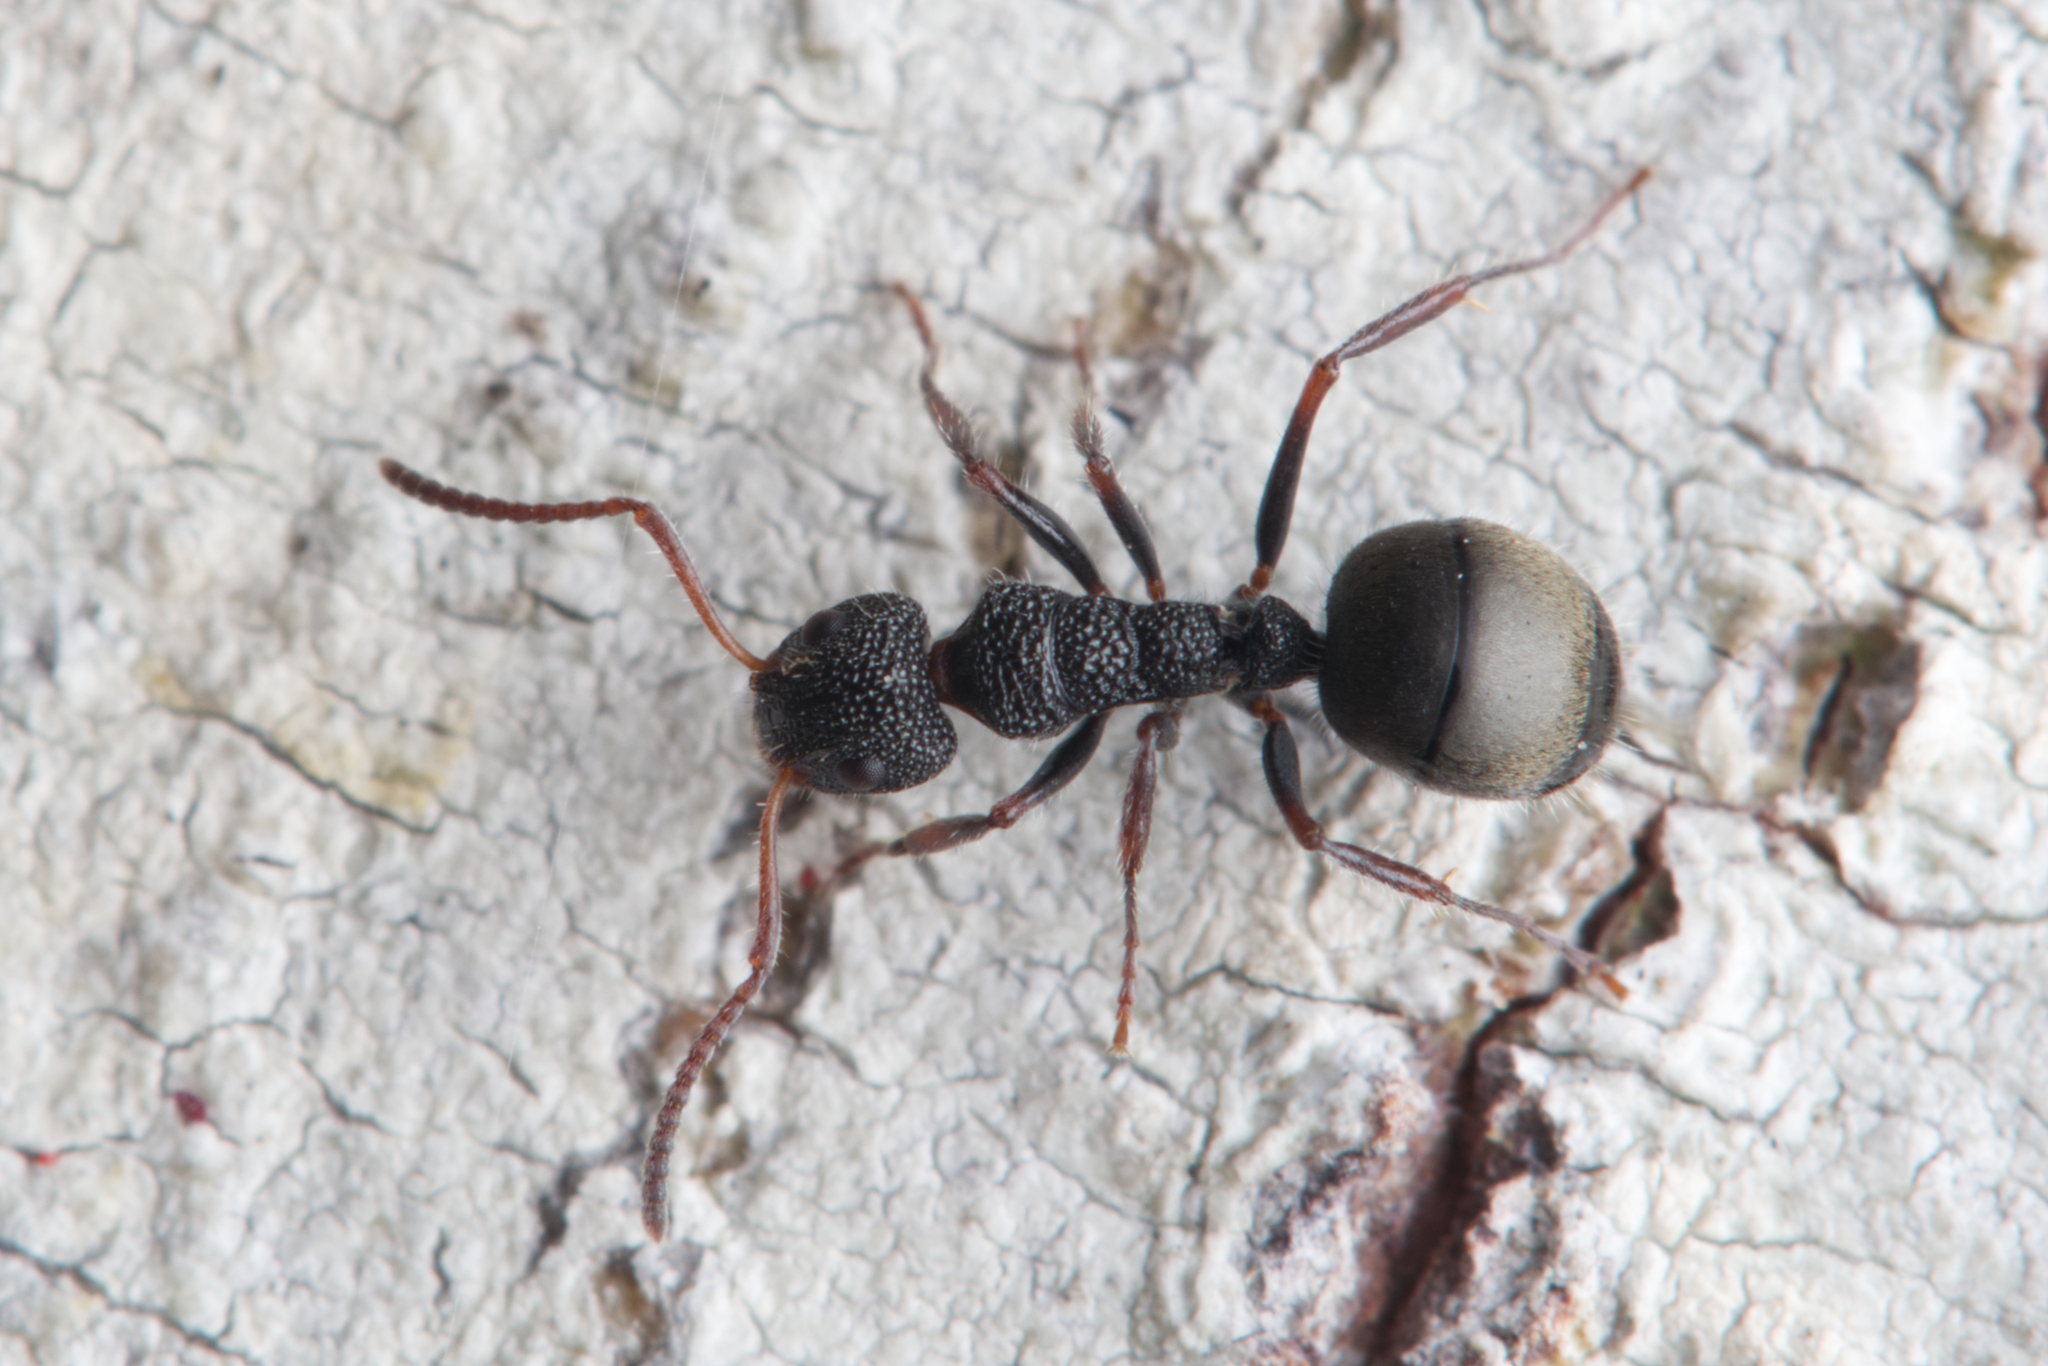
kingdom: Animalia
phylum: Arthropoda
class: Insecta
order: Hymenoptera
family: Formicidae
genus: Dolichoderus
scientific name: Dolichoderus scrobiculatus
